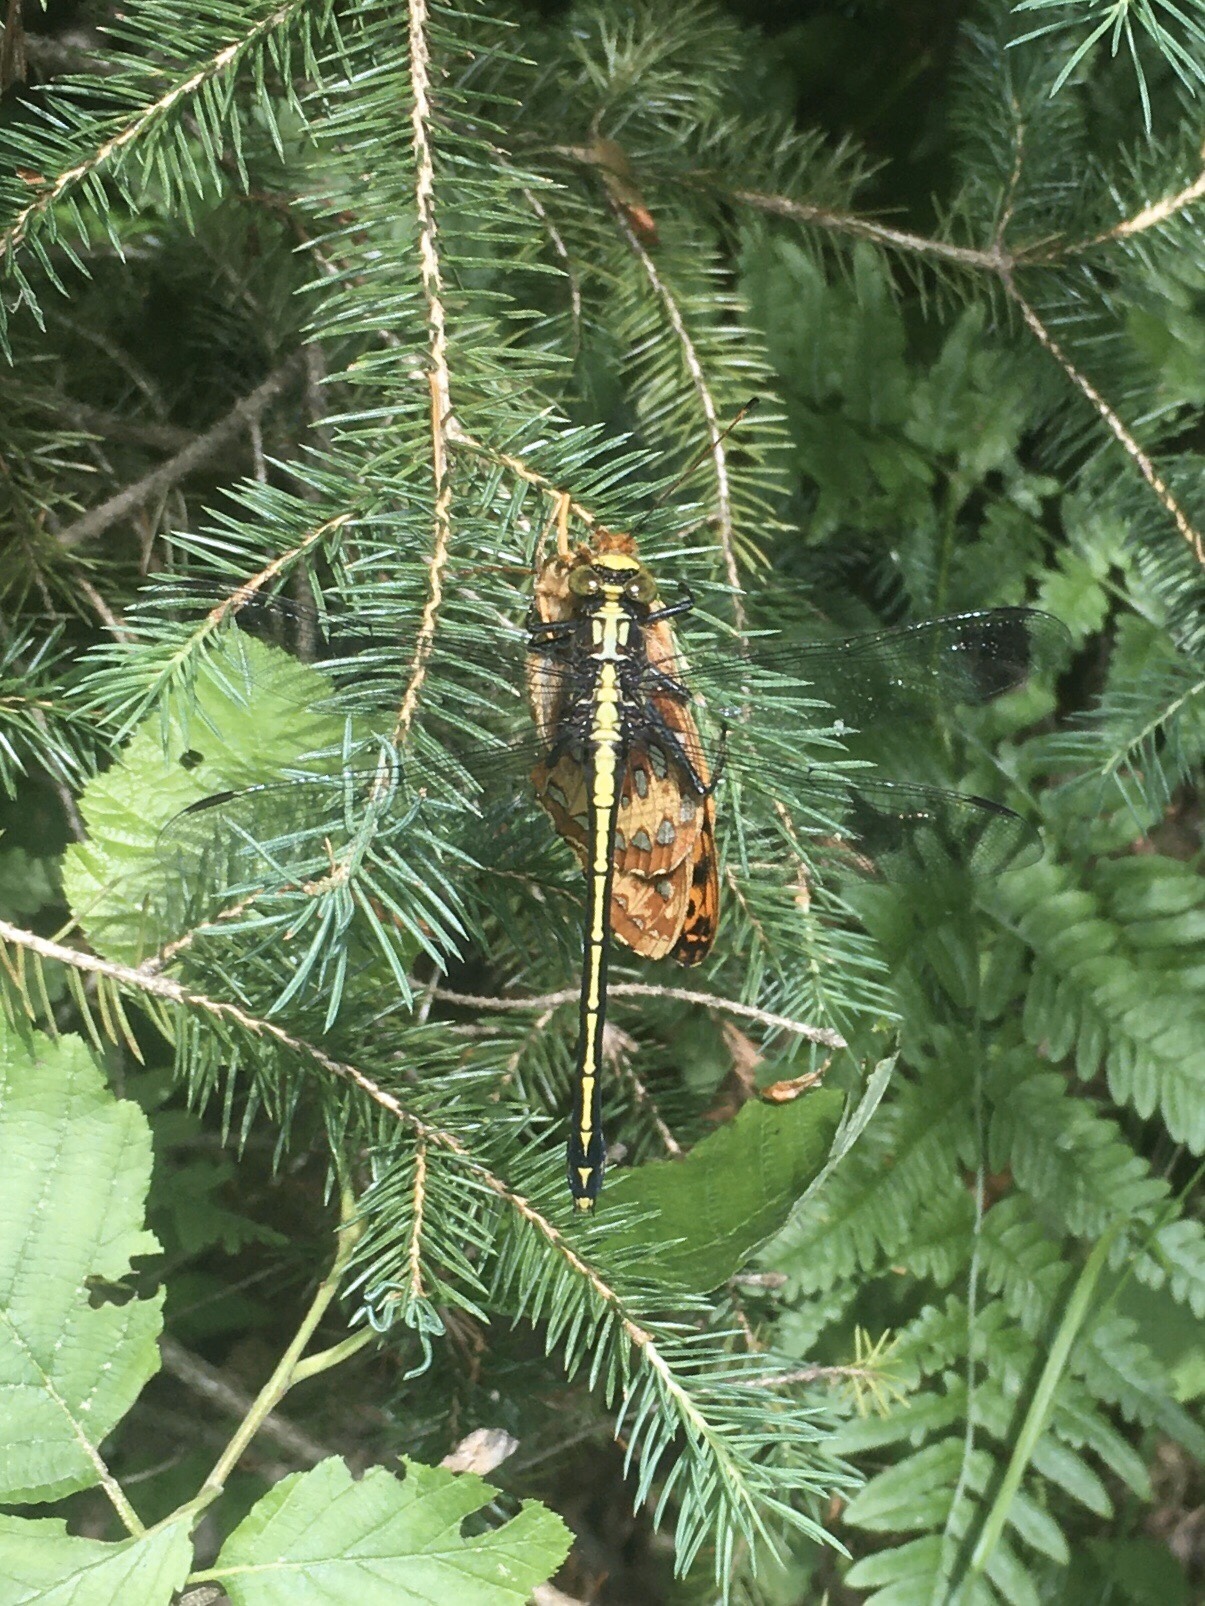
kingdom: Animalia
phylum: Arthropoda
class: Insecta
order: Odonata
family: Gomphidae
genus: Dromogomphus
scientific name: Dromogomphus spinosus
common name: Black-shouldered spinyleg
